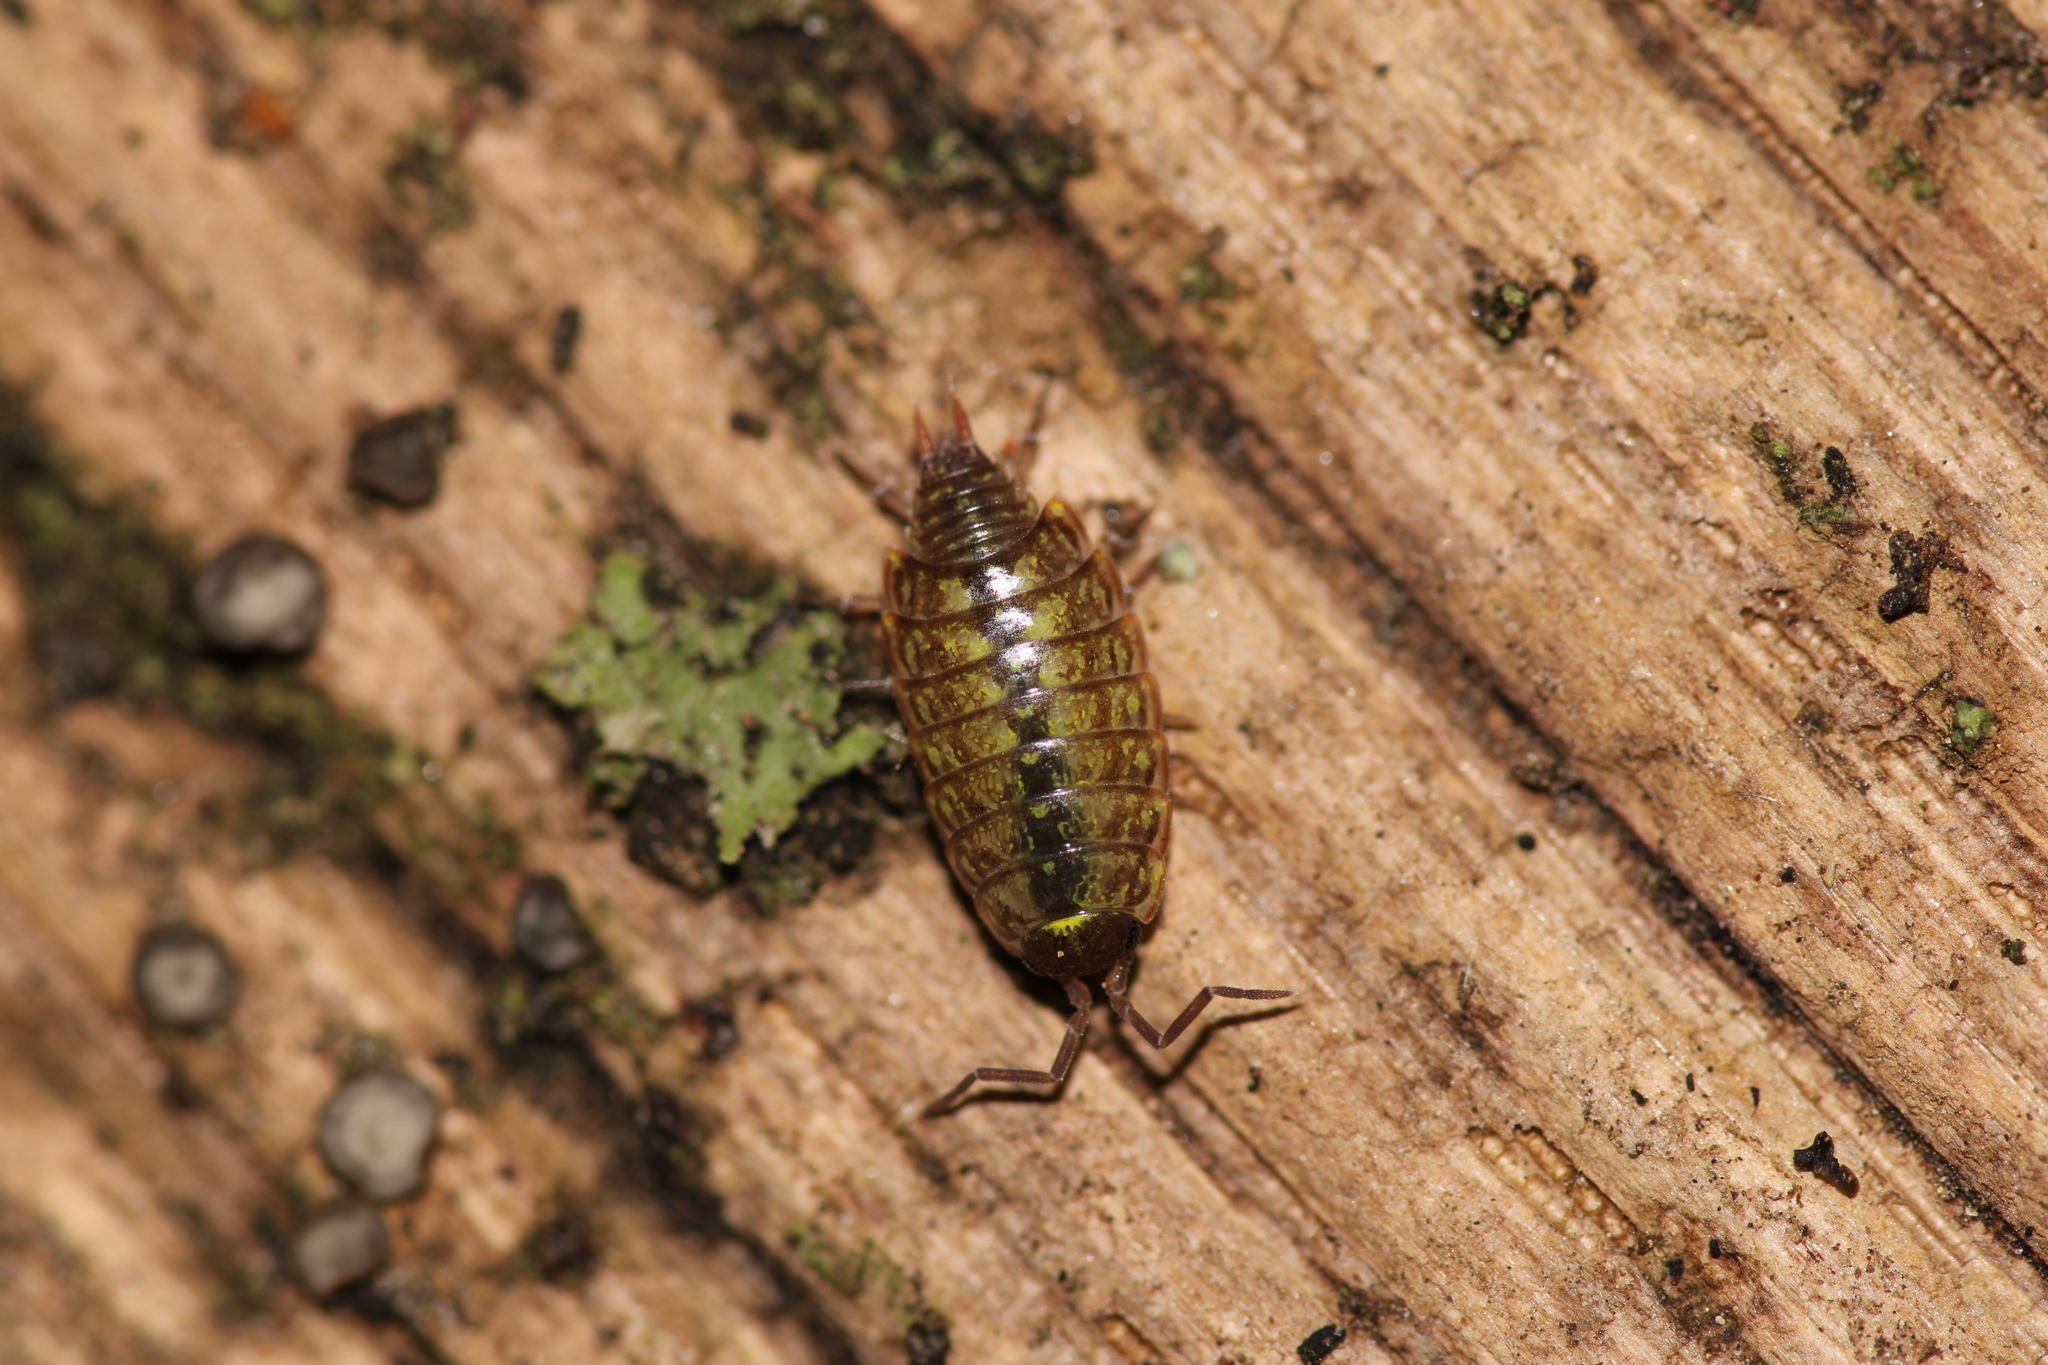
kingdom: Animalia
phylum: Arthropoda
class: Malacostraca
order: Isopoda
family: Philosciidae
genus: Philoscia
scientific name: Philoscia muscorum
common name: Common striped woodlouse
